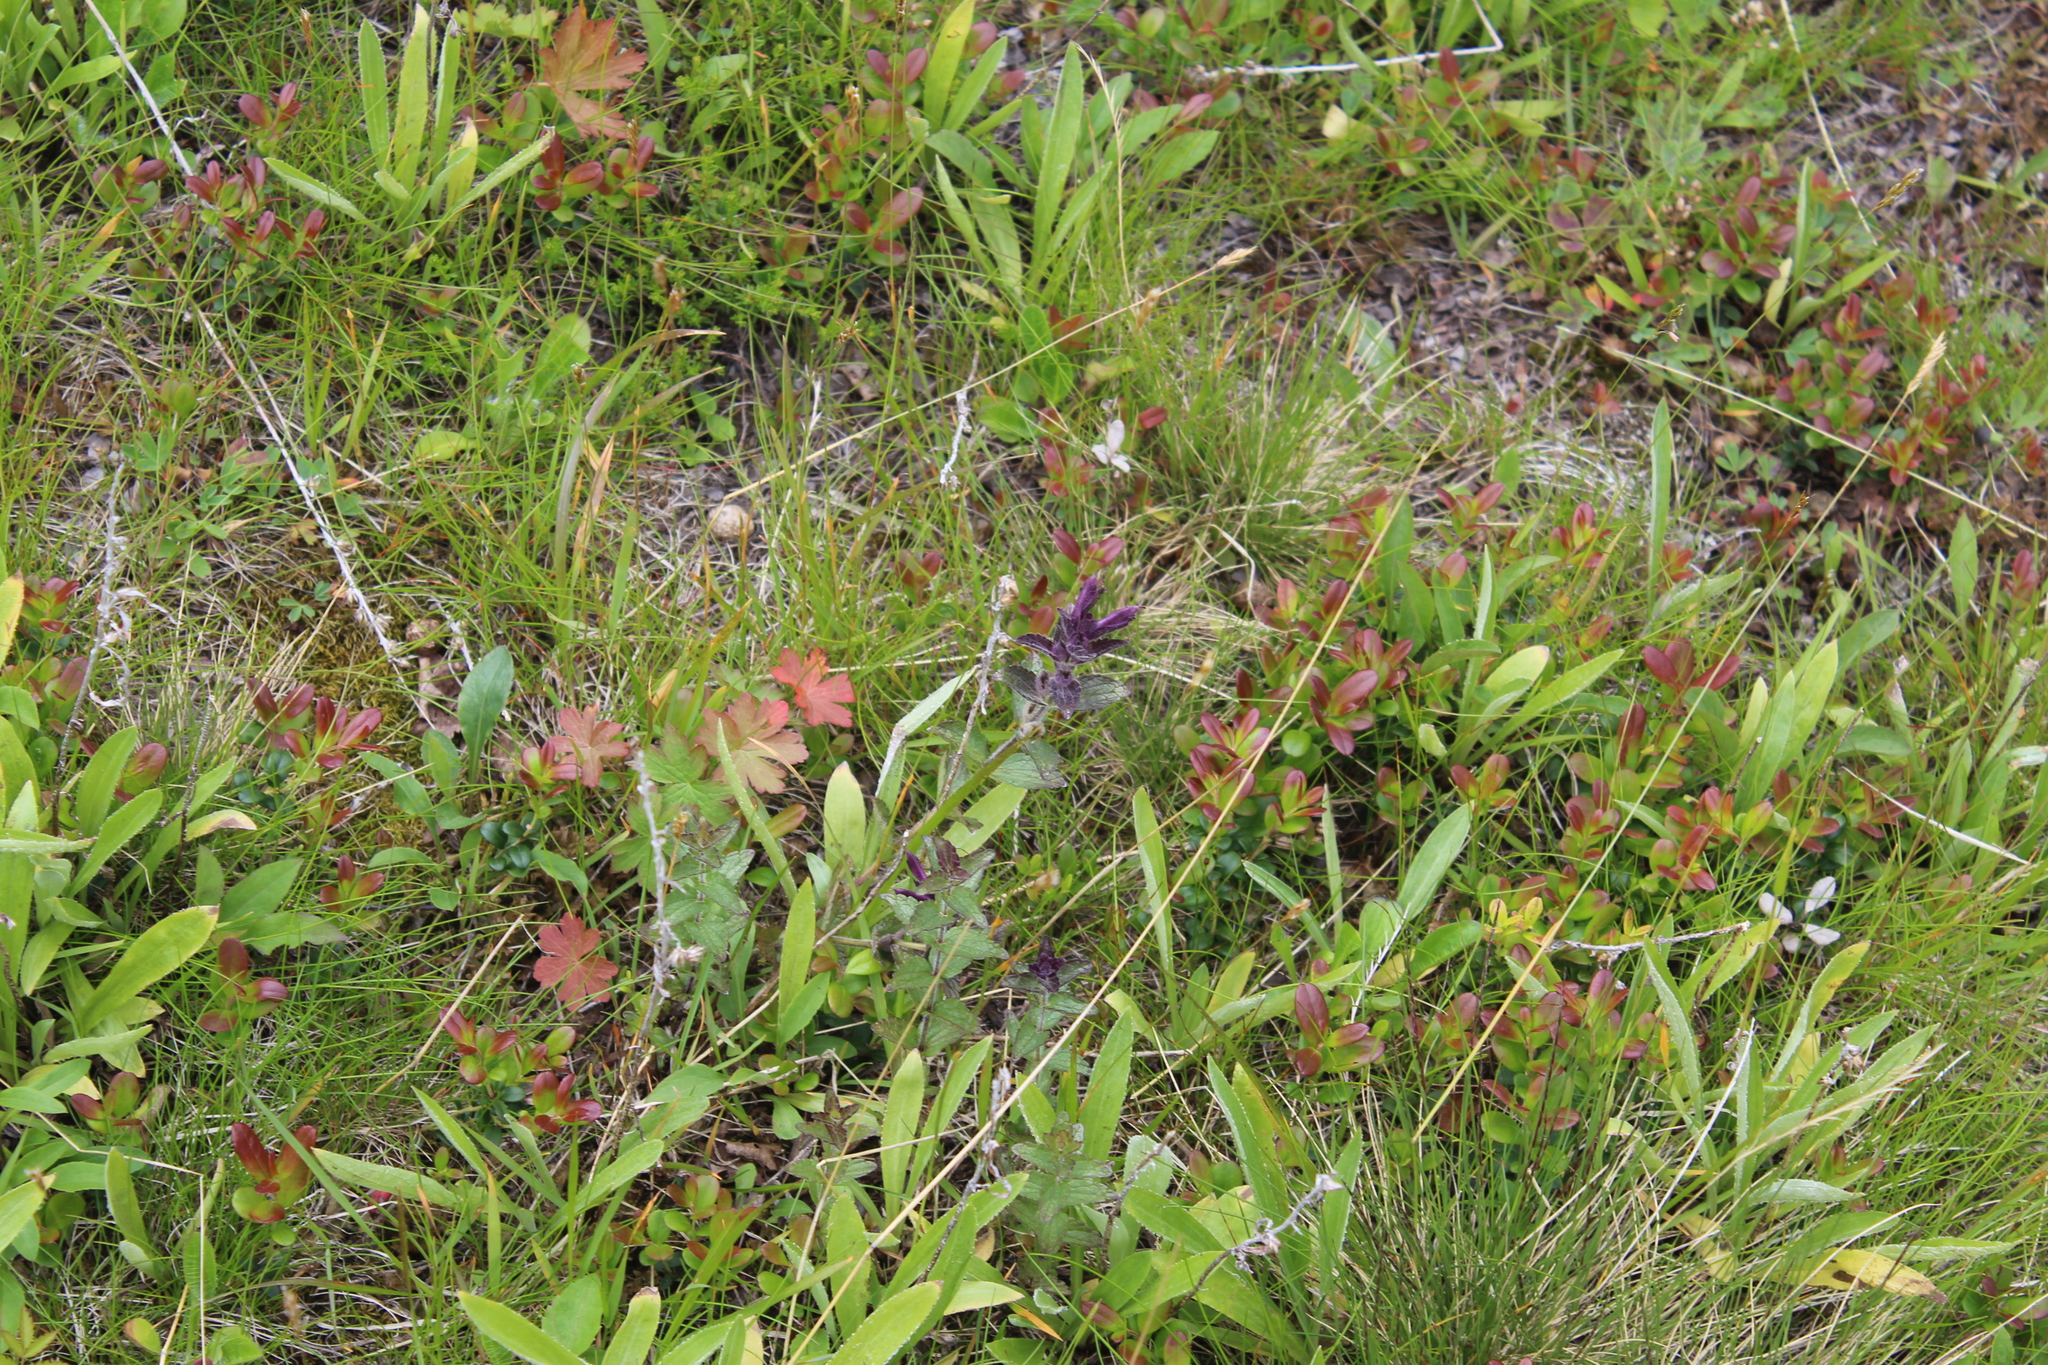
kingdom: Plantae
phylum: Tracheophyta
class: Magnoliopsida
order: Lamiales
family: Orobanchaceae
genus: Bartsia
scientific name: Bartsia alpina
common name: Alpine bartsia
